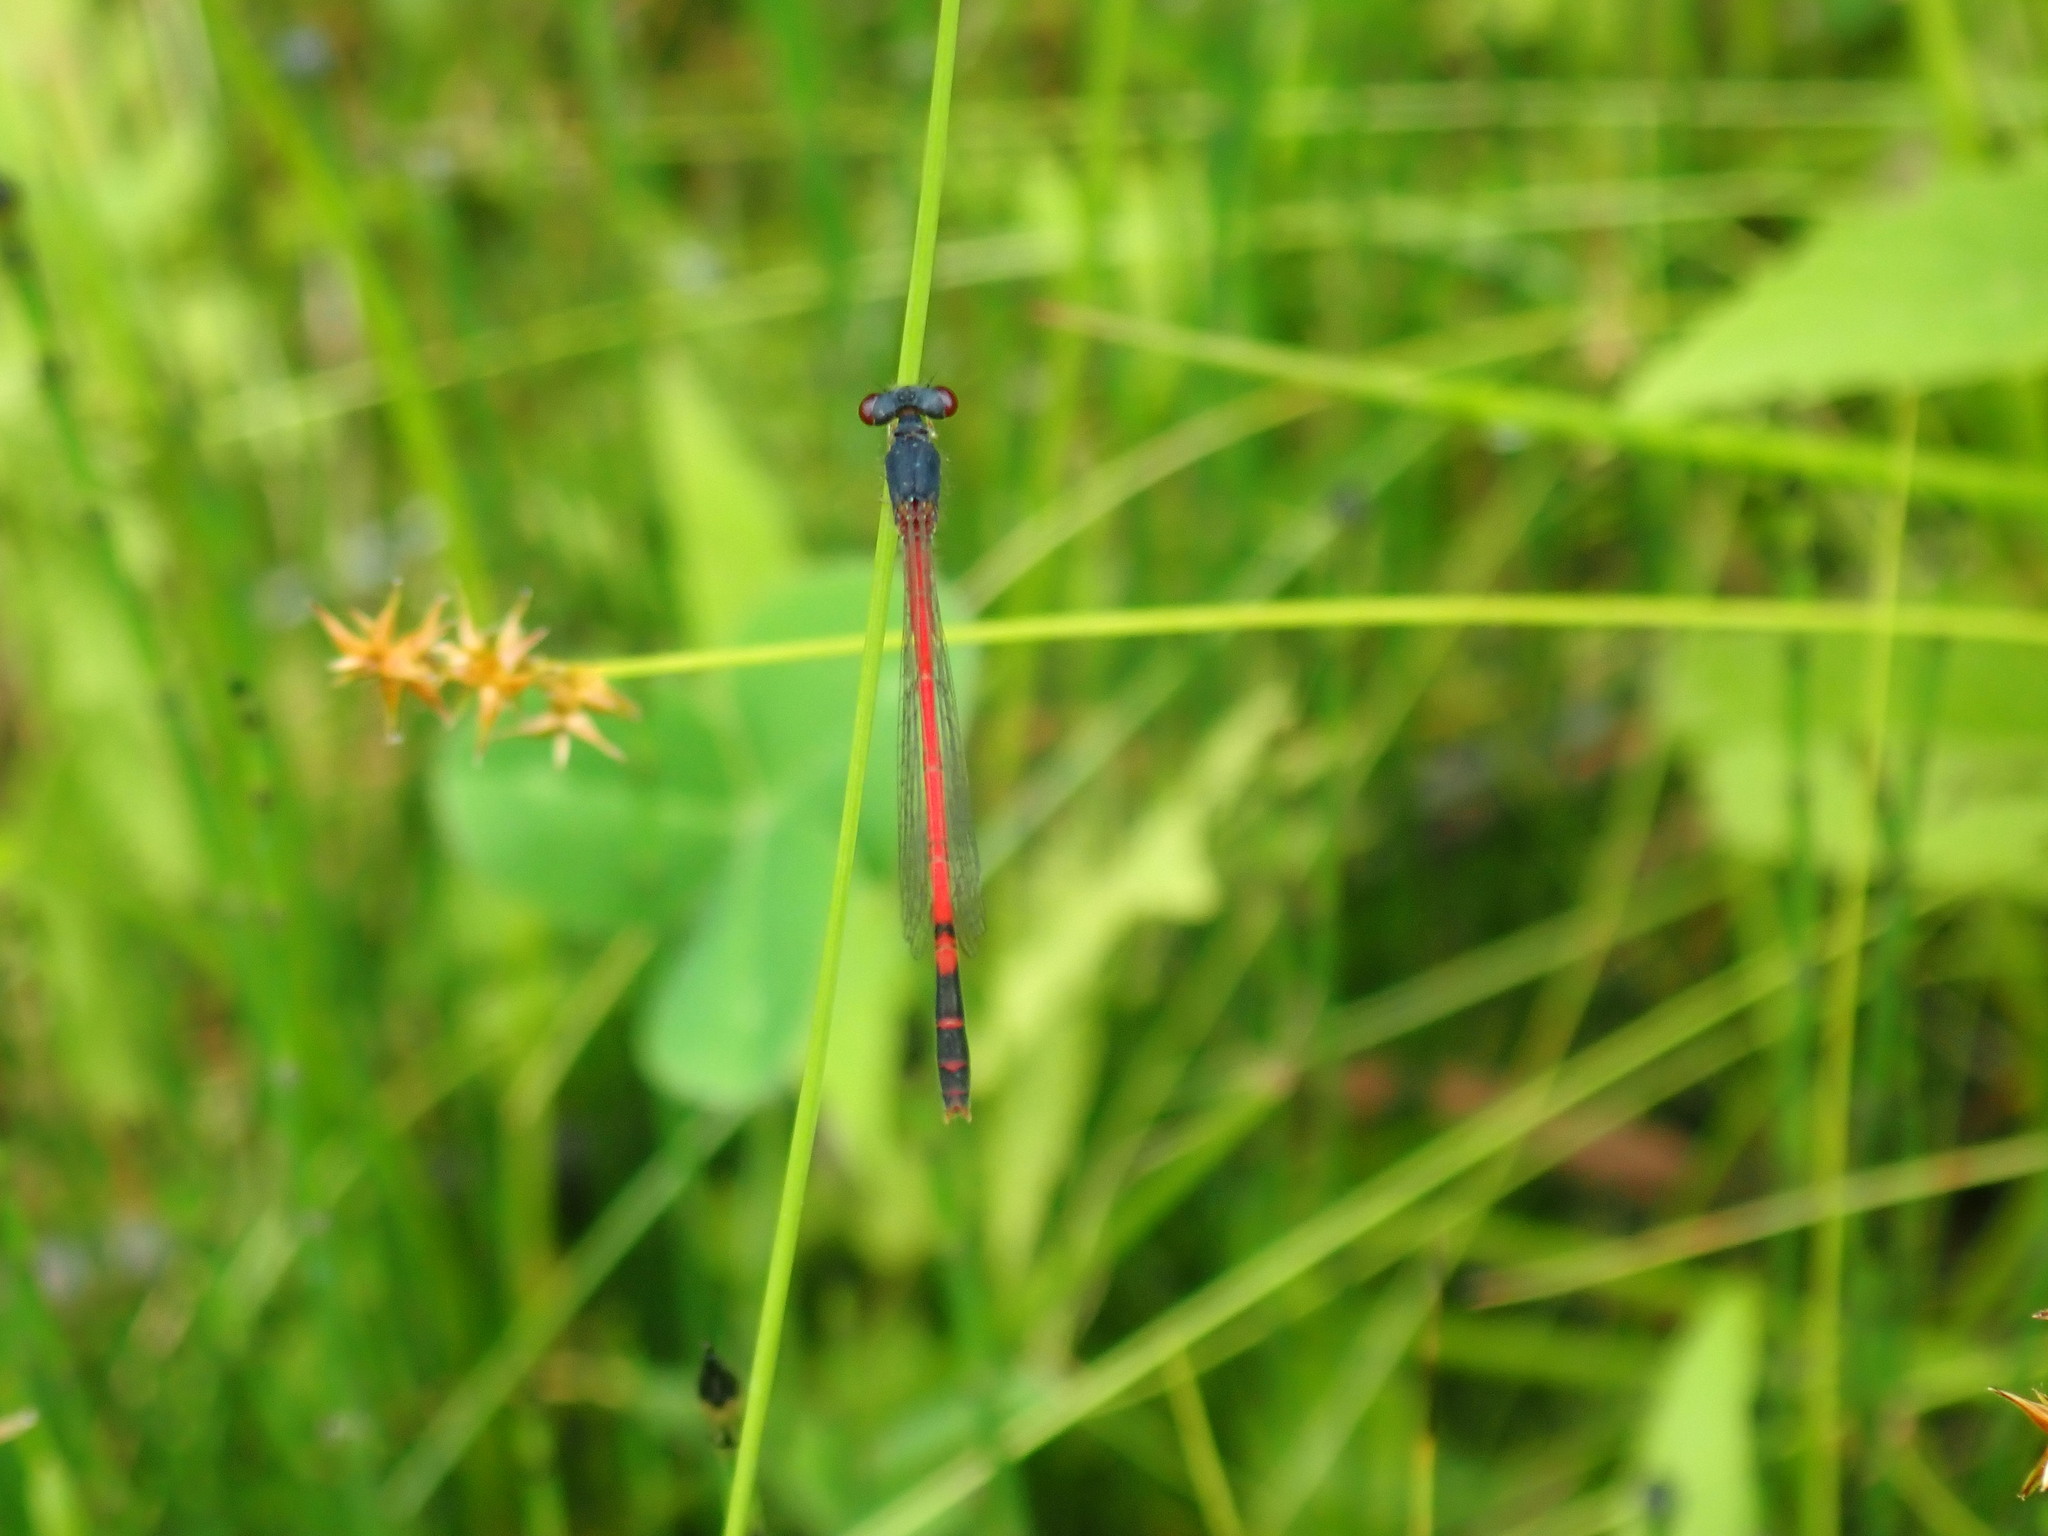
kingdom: Animalia
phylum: Arthropoda
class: Insecta
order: Odonata
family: Coenagrionidae
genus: Amphiagrion
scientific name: Amphiagrion saucium
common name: Eastern red damsel
